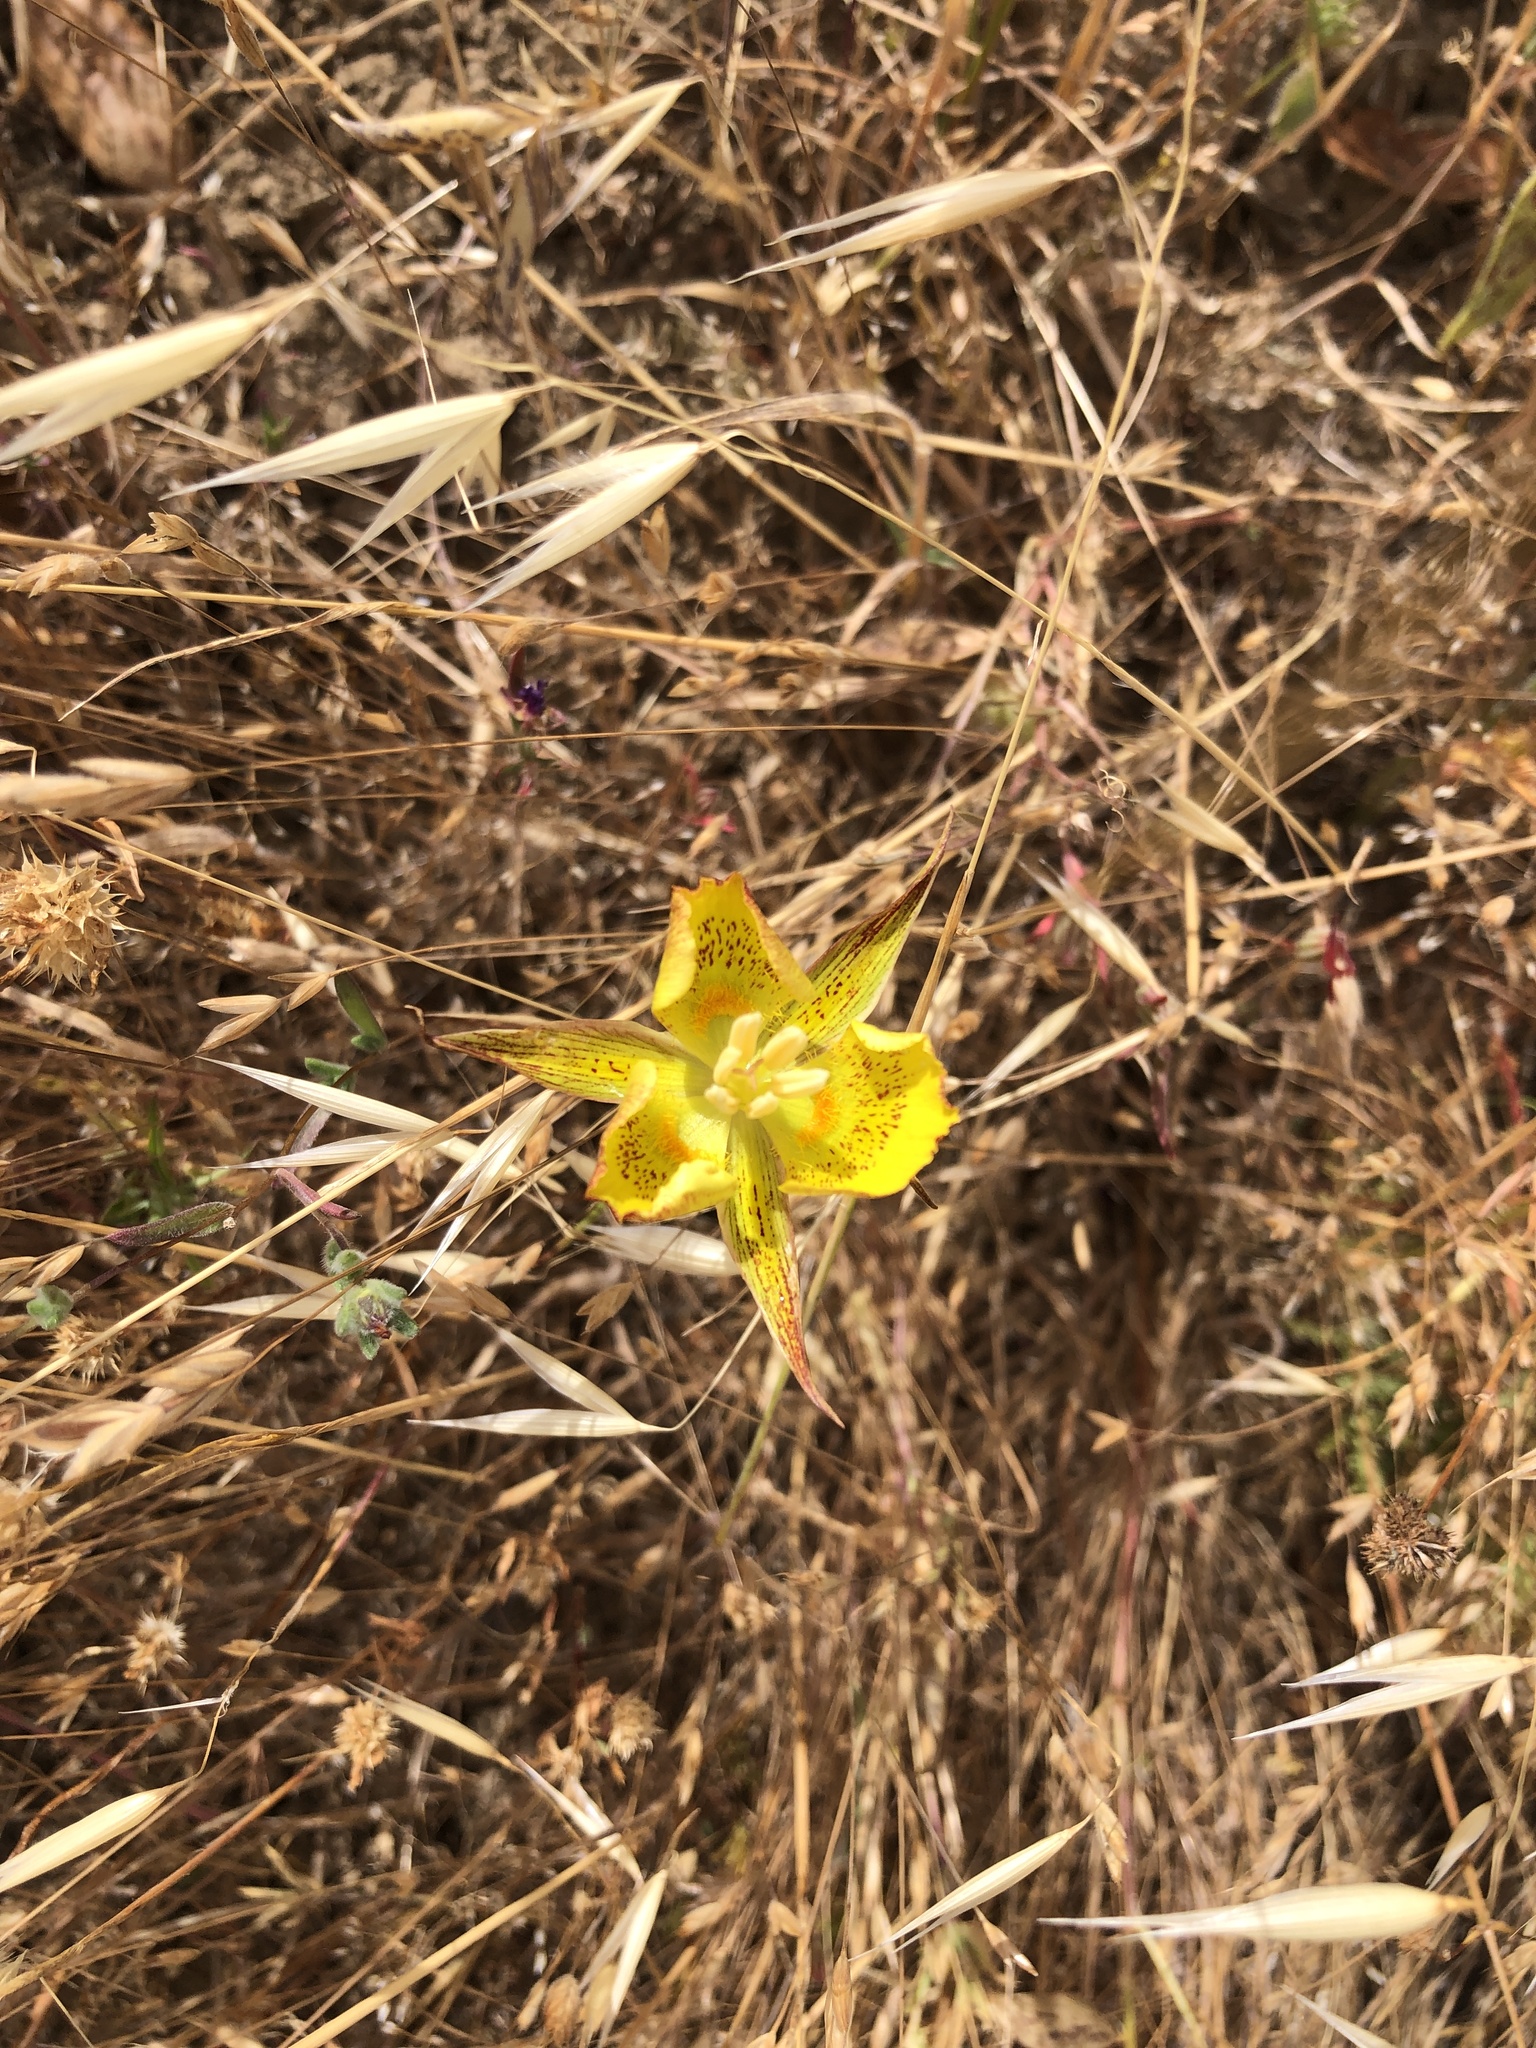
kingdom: Plantae
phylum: Tracheophyta
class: Liliopsida
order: Liliales
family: Liliaceae
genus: Calochortus
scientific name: Calochortus luteus
